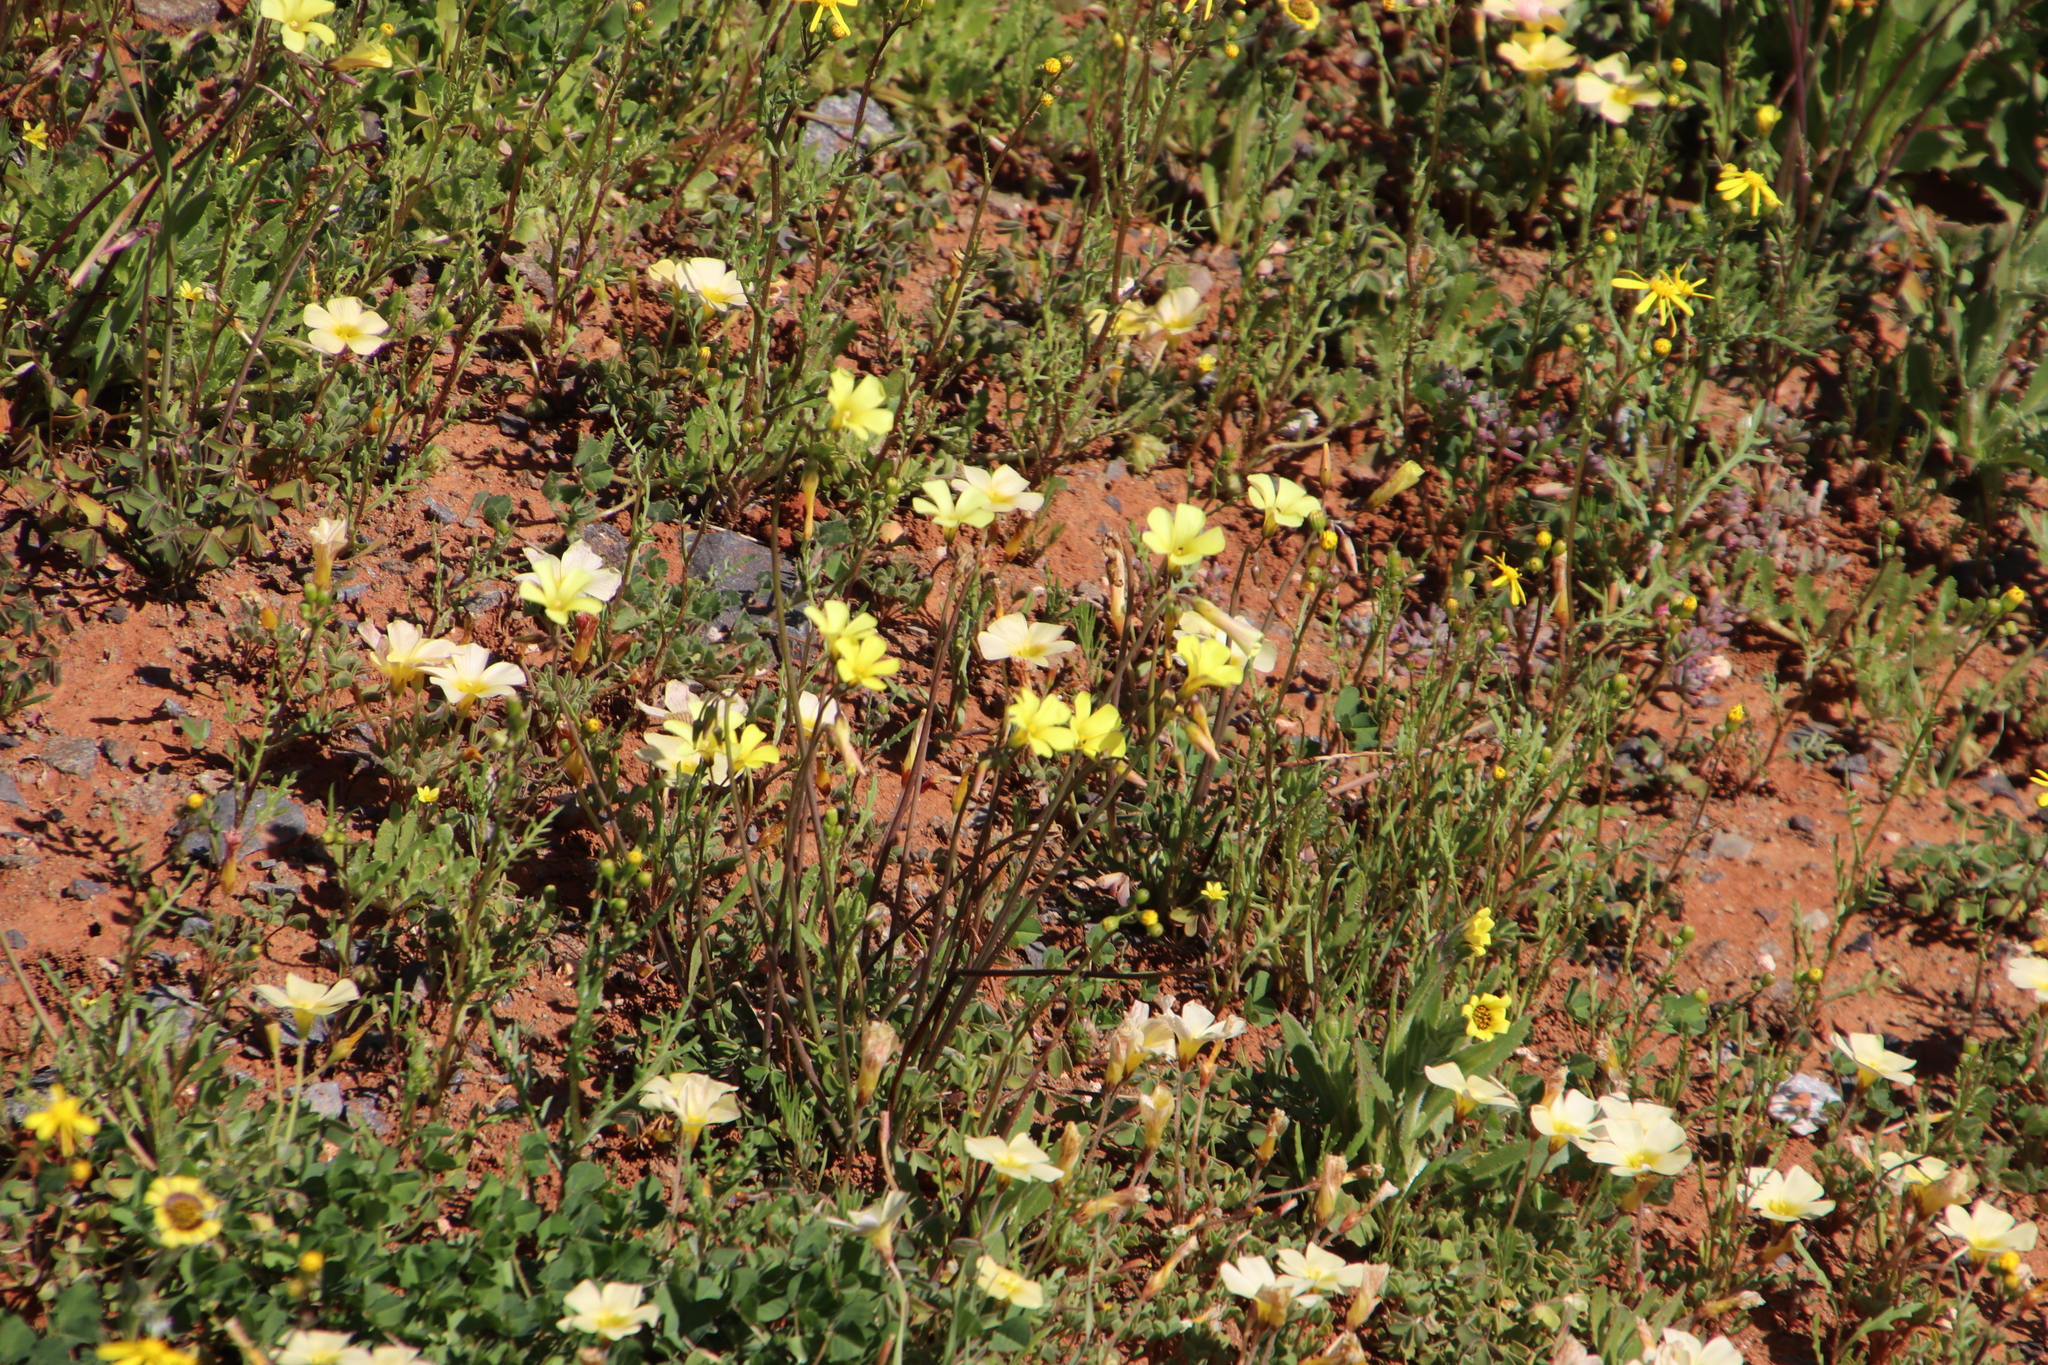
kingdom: Plantae
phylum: Tracheophyta
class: Magnoliopsida
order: Oxalidales
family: Oxalidaceae
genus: Oxalis
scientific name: Oxalis pes-caprae
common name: Bermuda-buttercup
